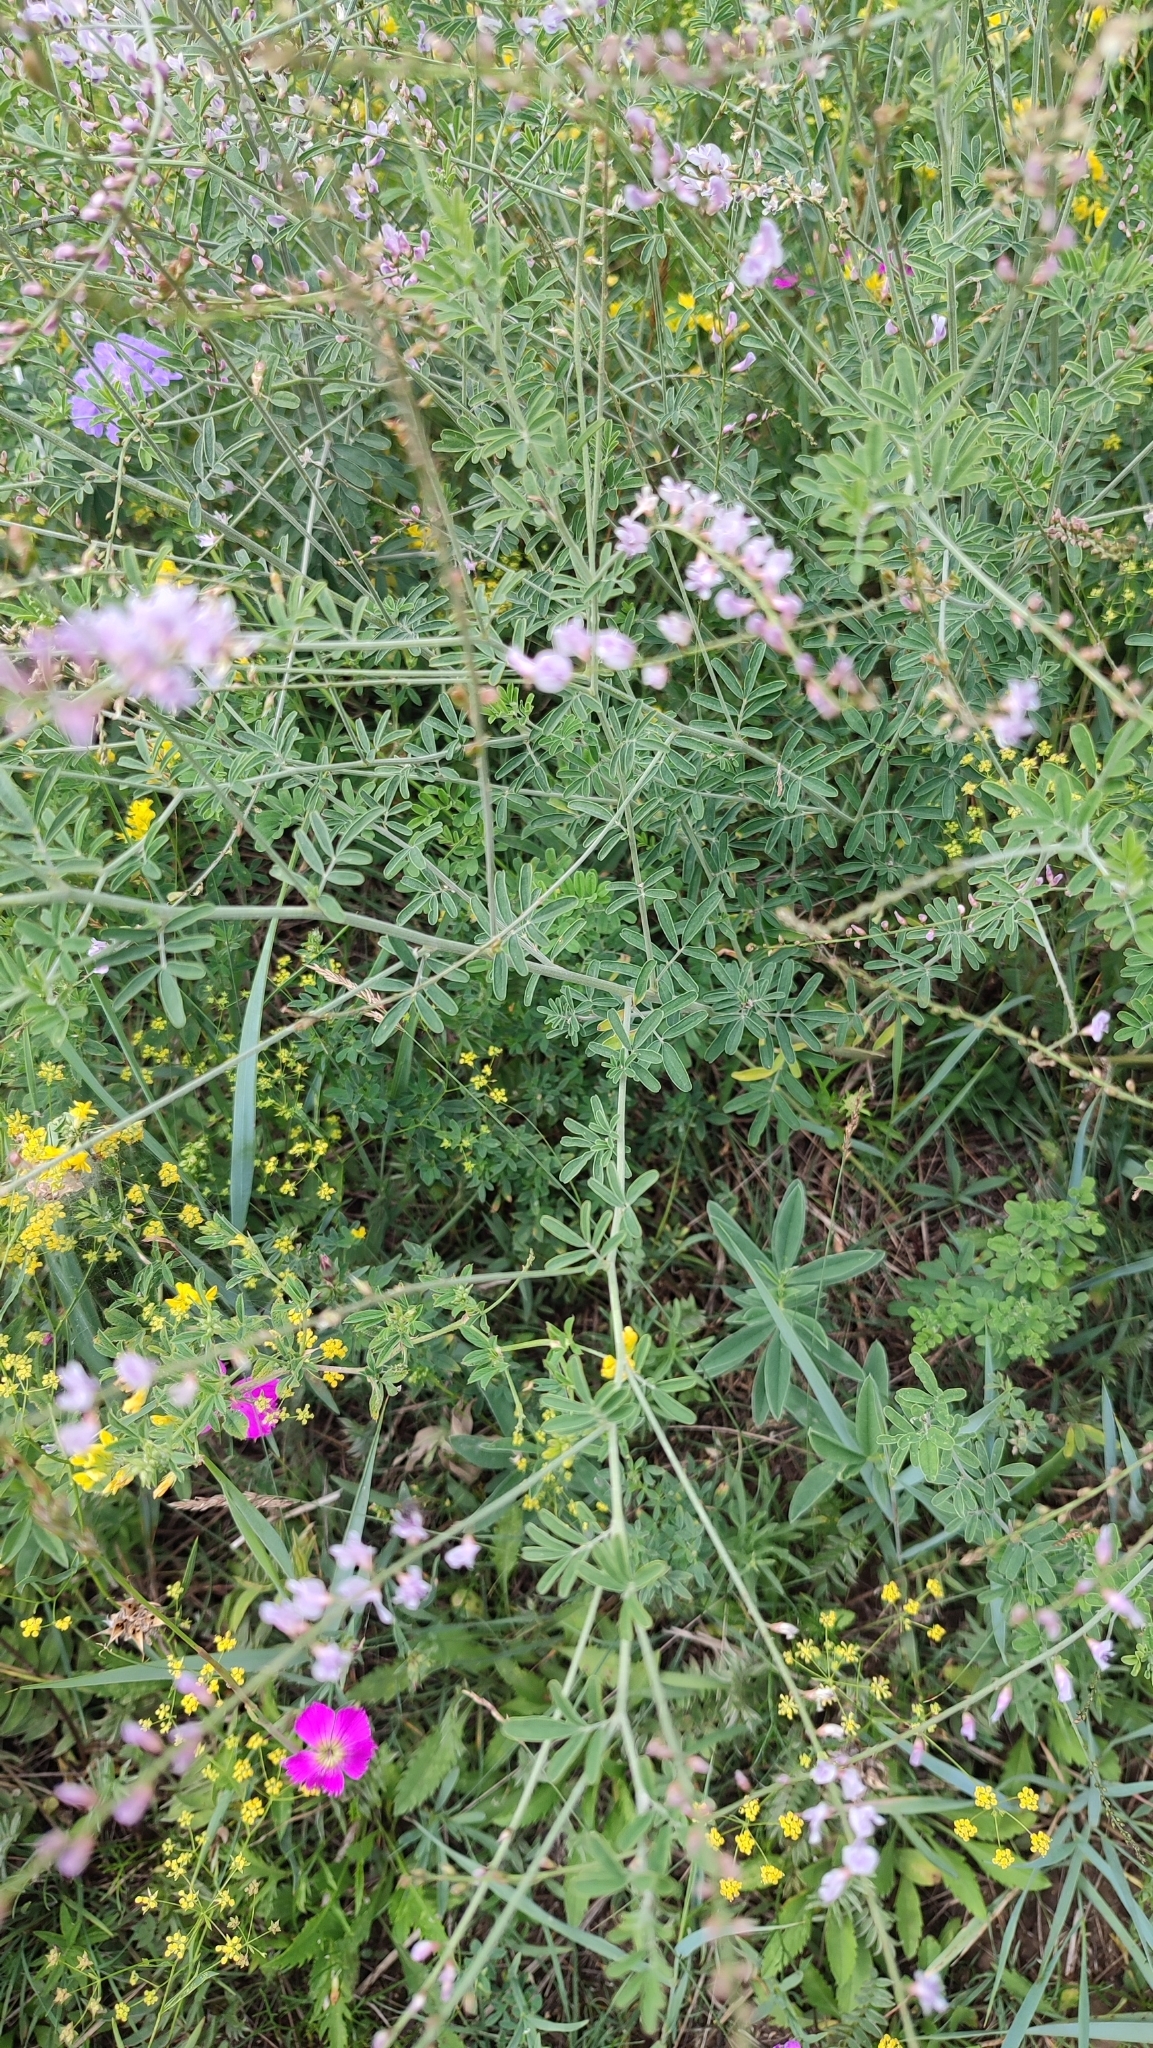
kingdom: Plantae
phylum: Tracheophyta
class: Magnoliopsida
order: Fabales
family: Fabaceae
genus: Astragalus
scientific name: Astragalus melilotoides
